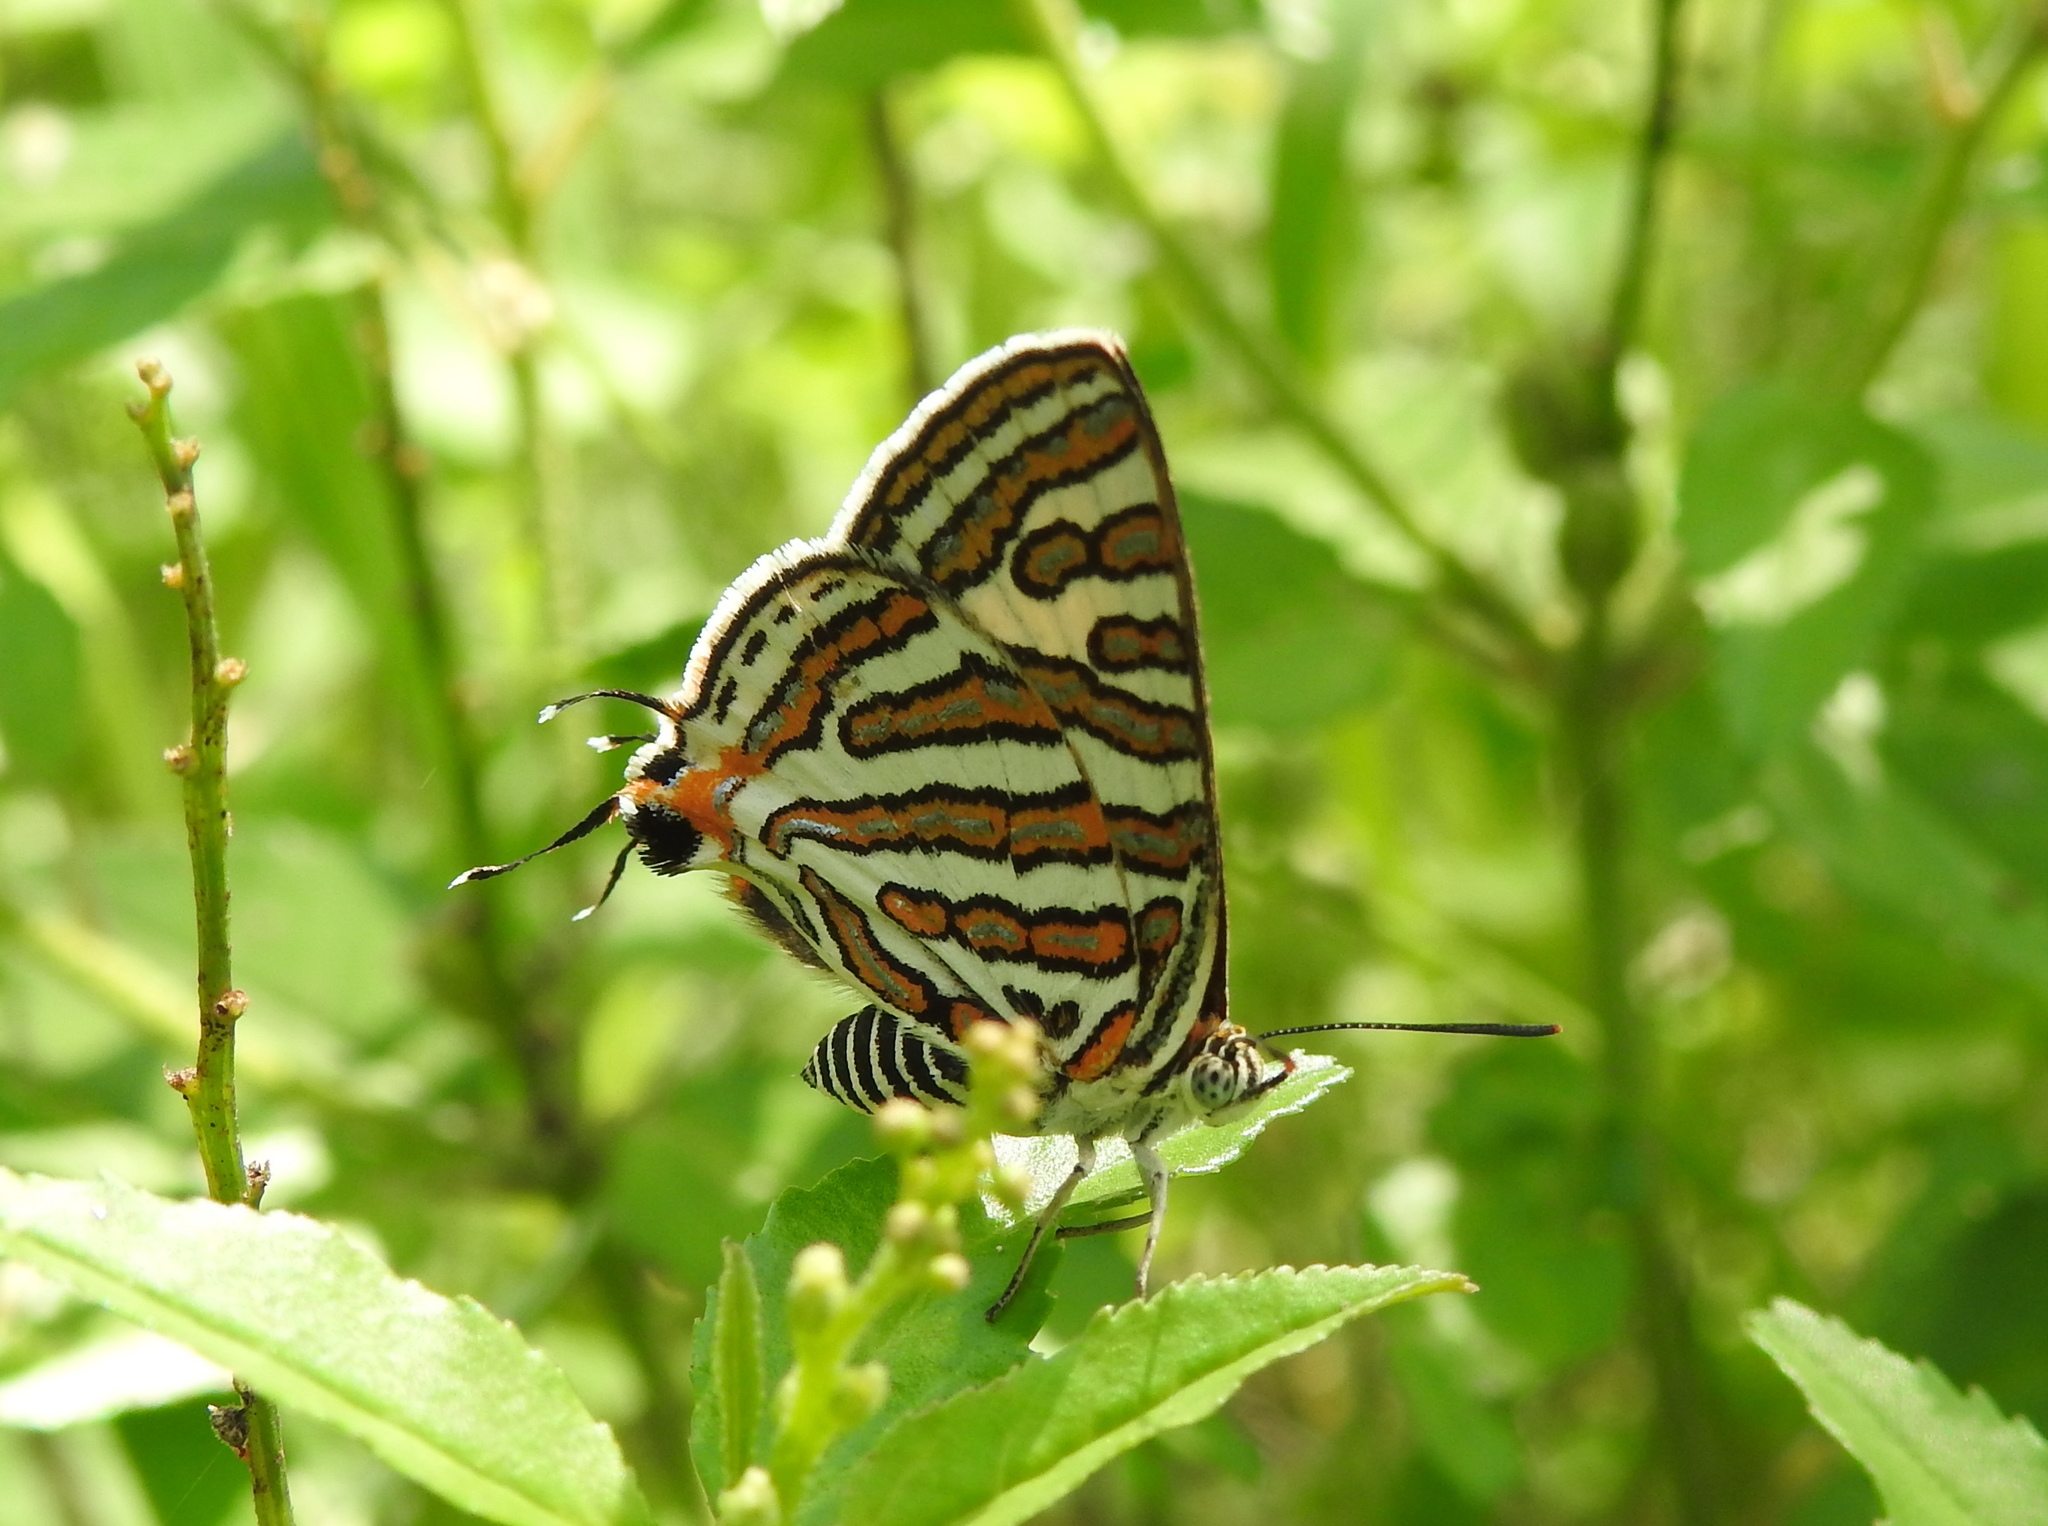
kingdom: Animalia
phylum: Arthropoda
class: Insecta
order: Lepidoptera
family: Lycaenidae
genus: Cigaritis
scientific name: Cigaritis vulcanus
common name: Common silverline
